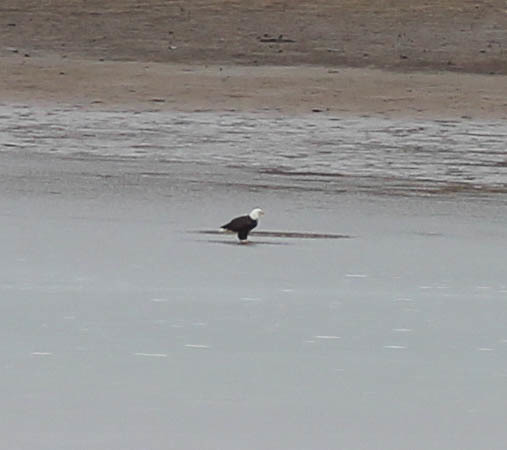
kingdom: Animalia
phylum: Chordata
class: Aves
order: Accipitriformes
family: Accipitridae
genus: Haliaeetus
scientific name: Haliaeetus leucocephalus
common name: Bald eagle
